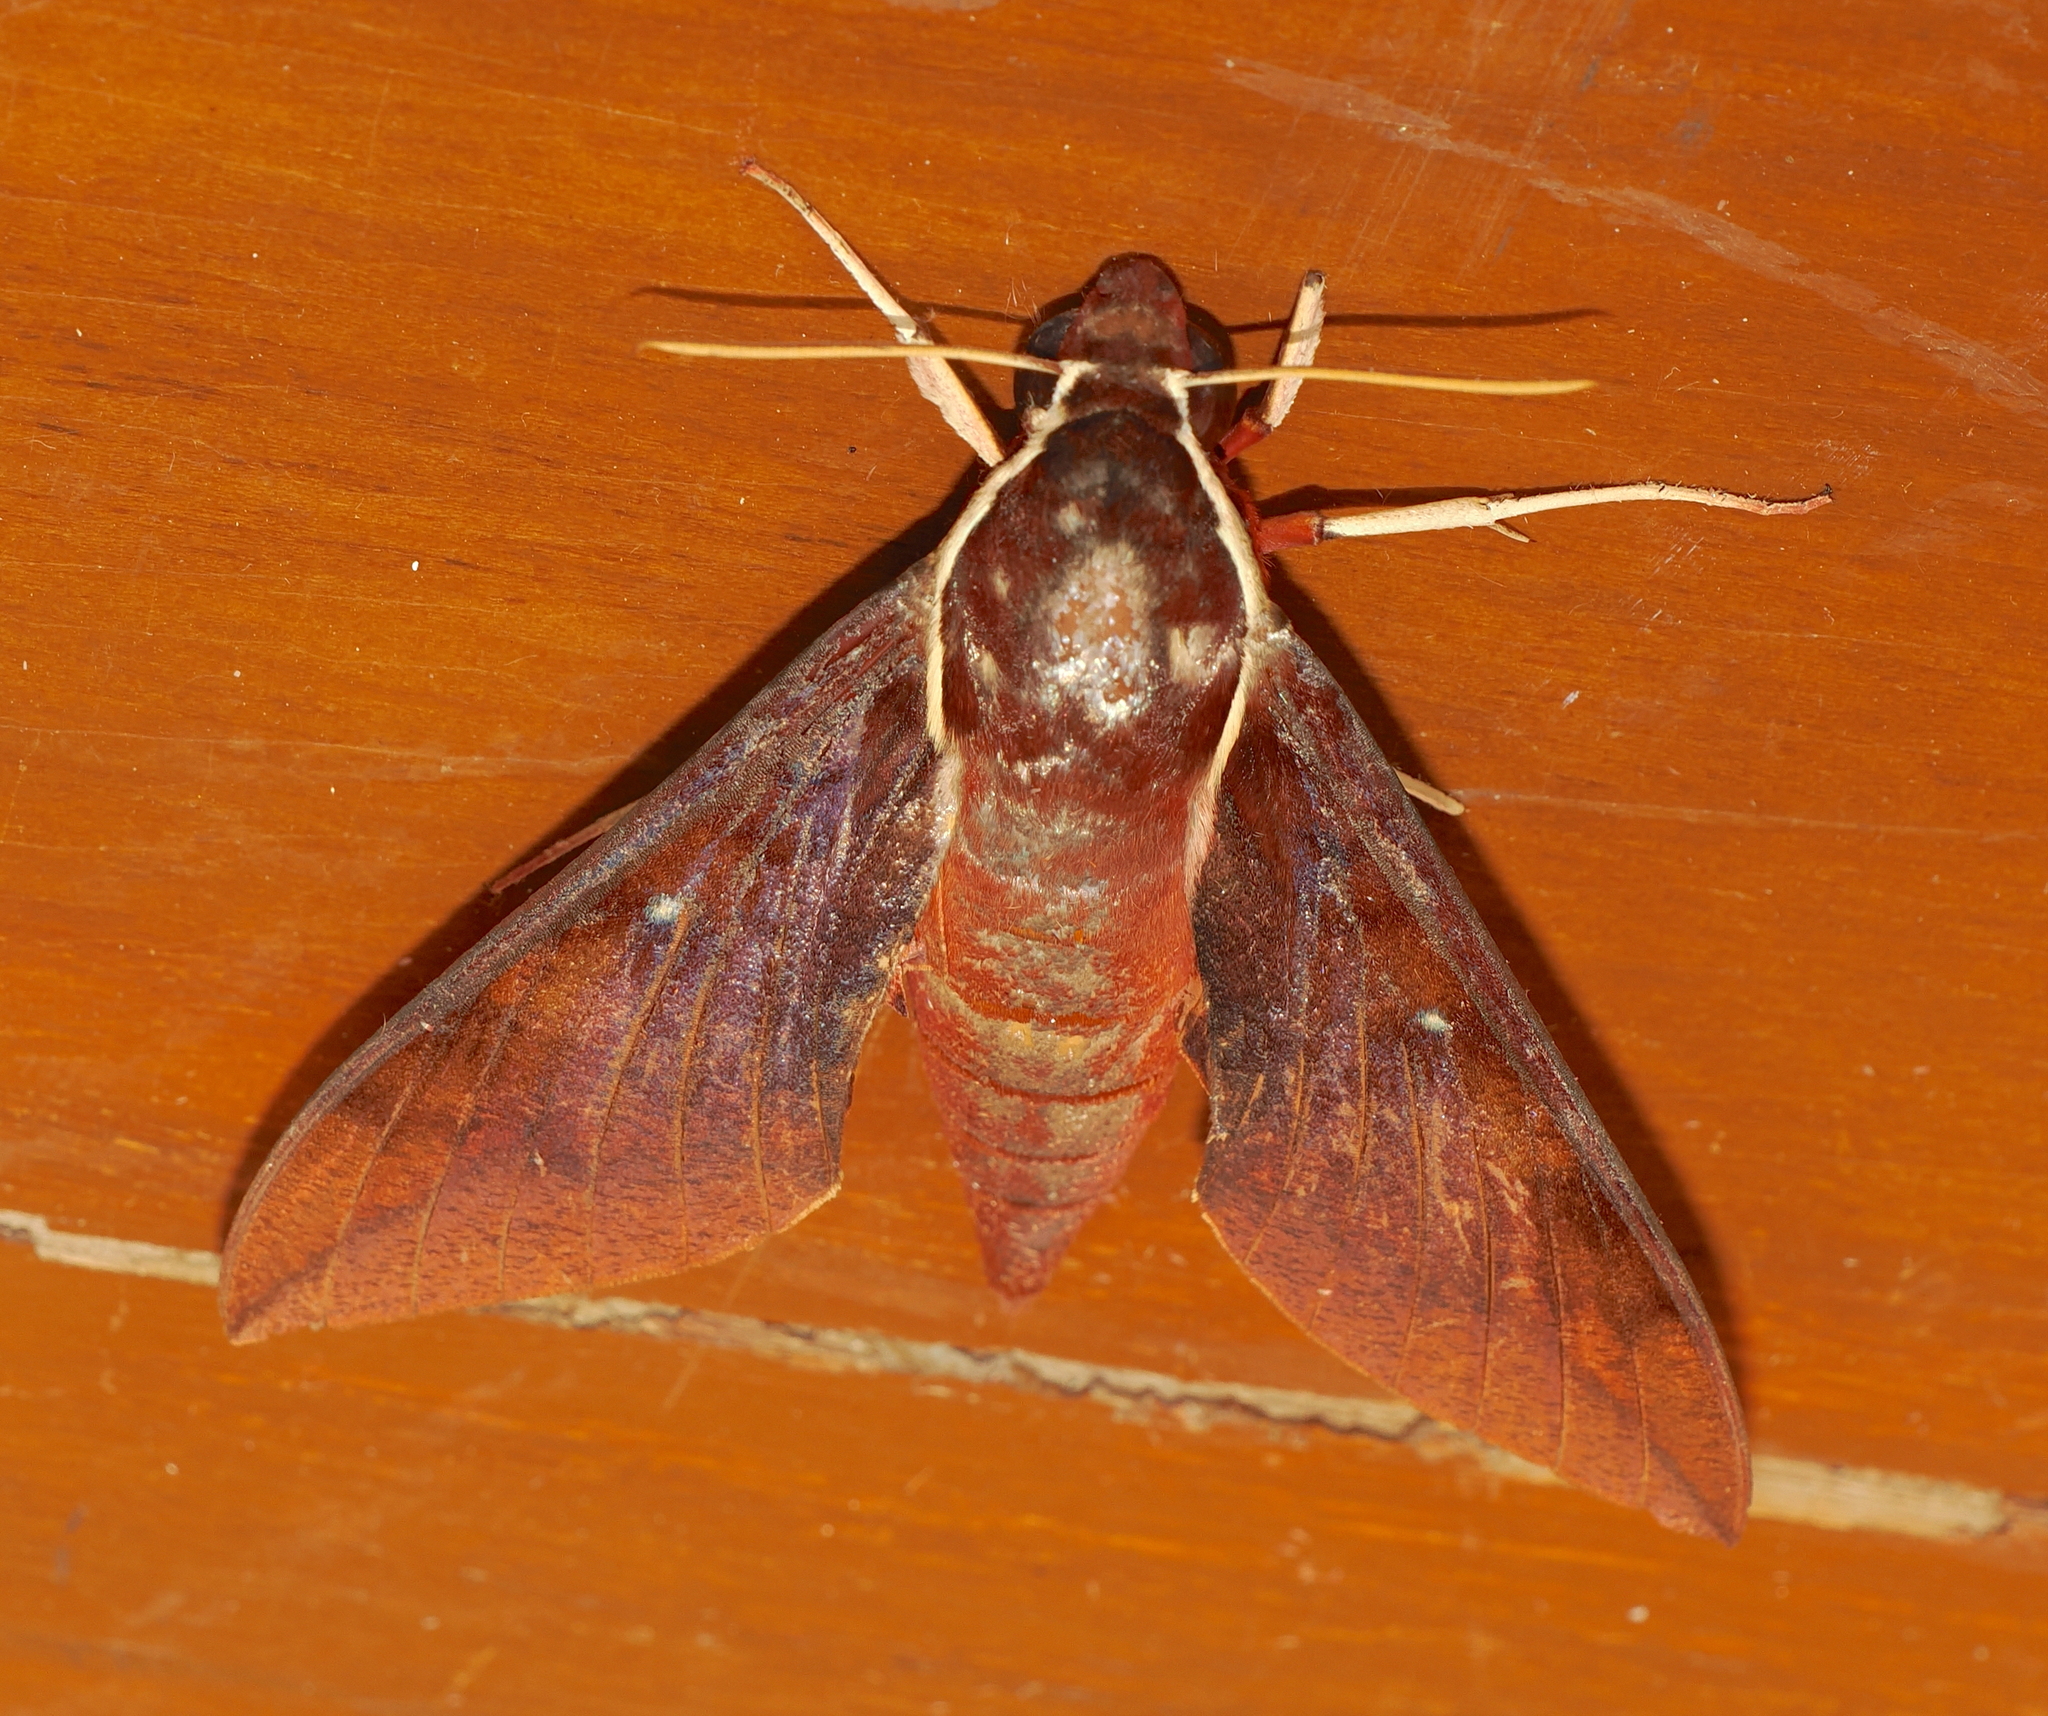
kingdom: Animalia
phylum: Arthropoda
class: Insecta
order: Lepidoptera
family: Sphingidae
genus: Theretra
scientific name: Theretra pallicosta
